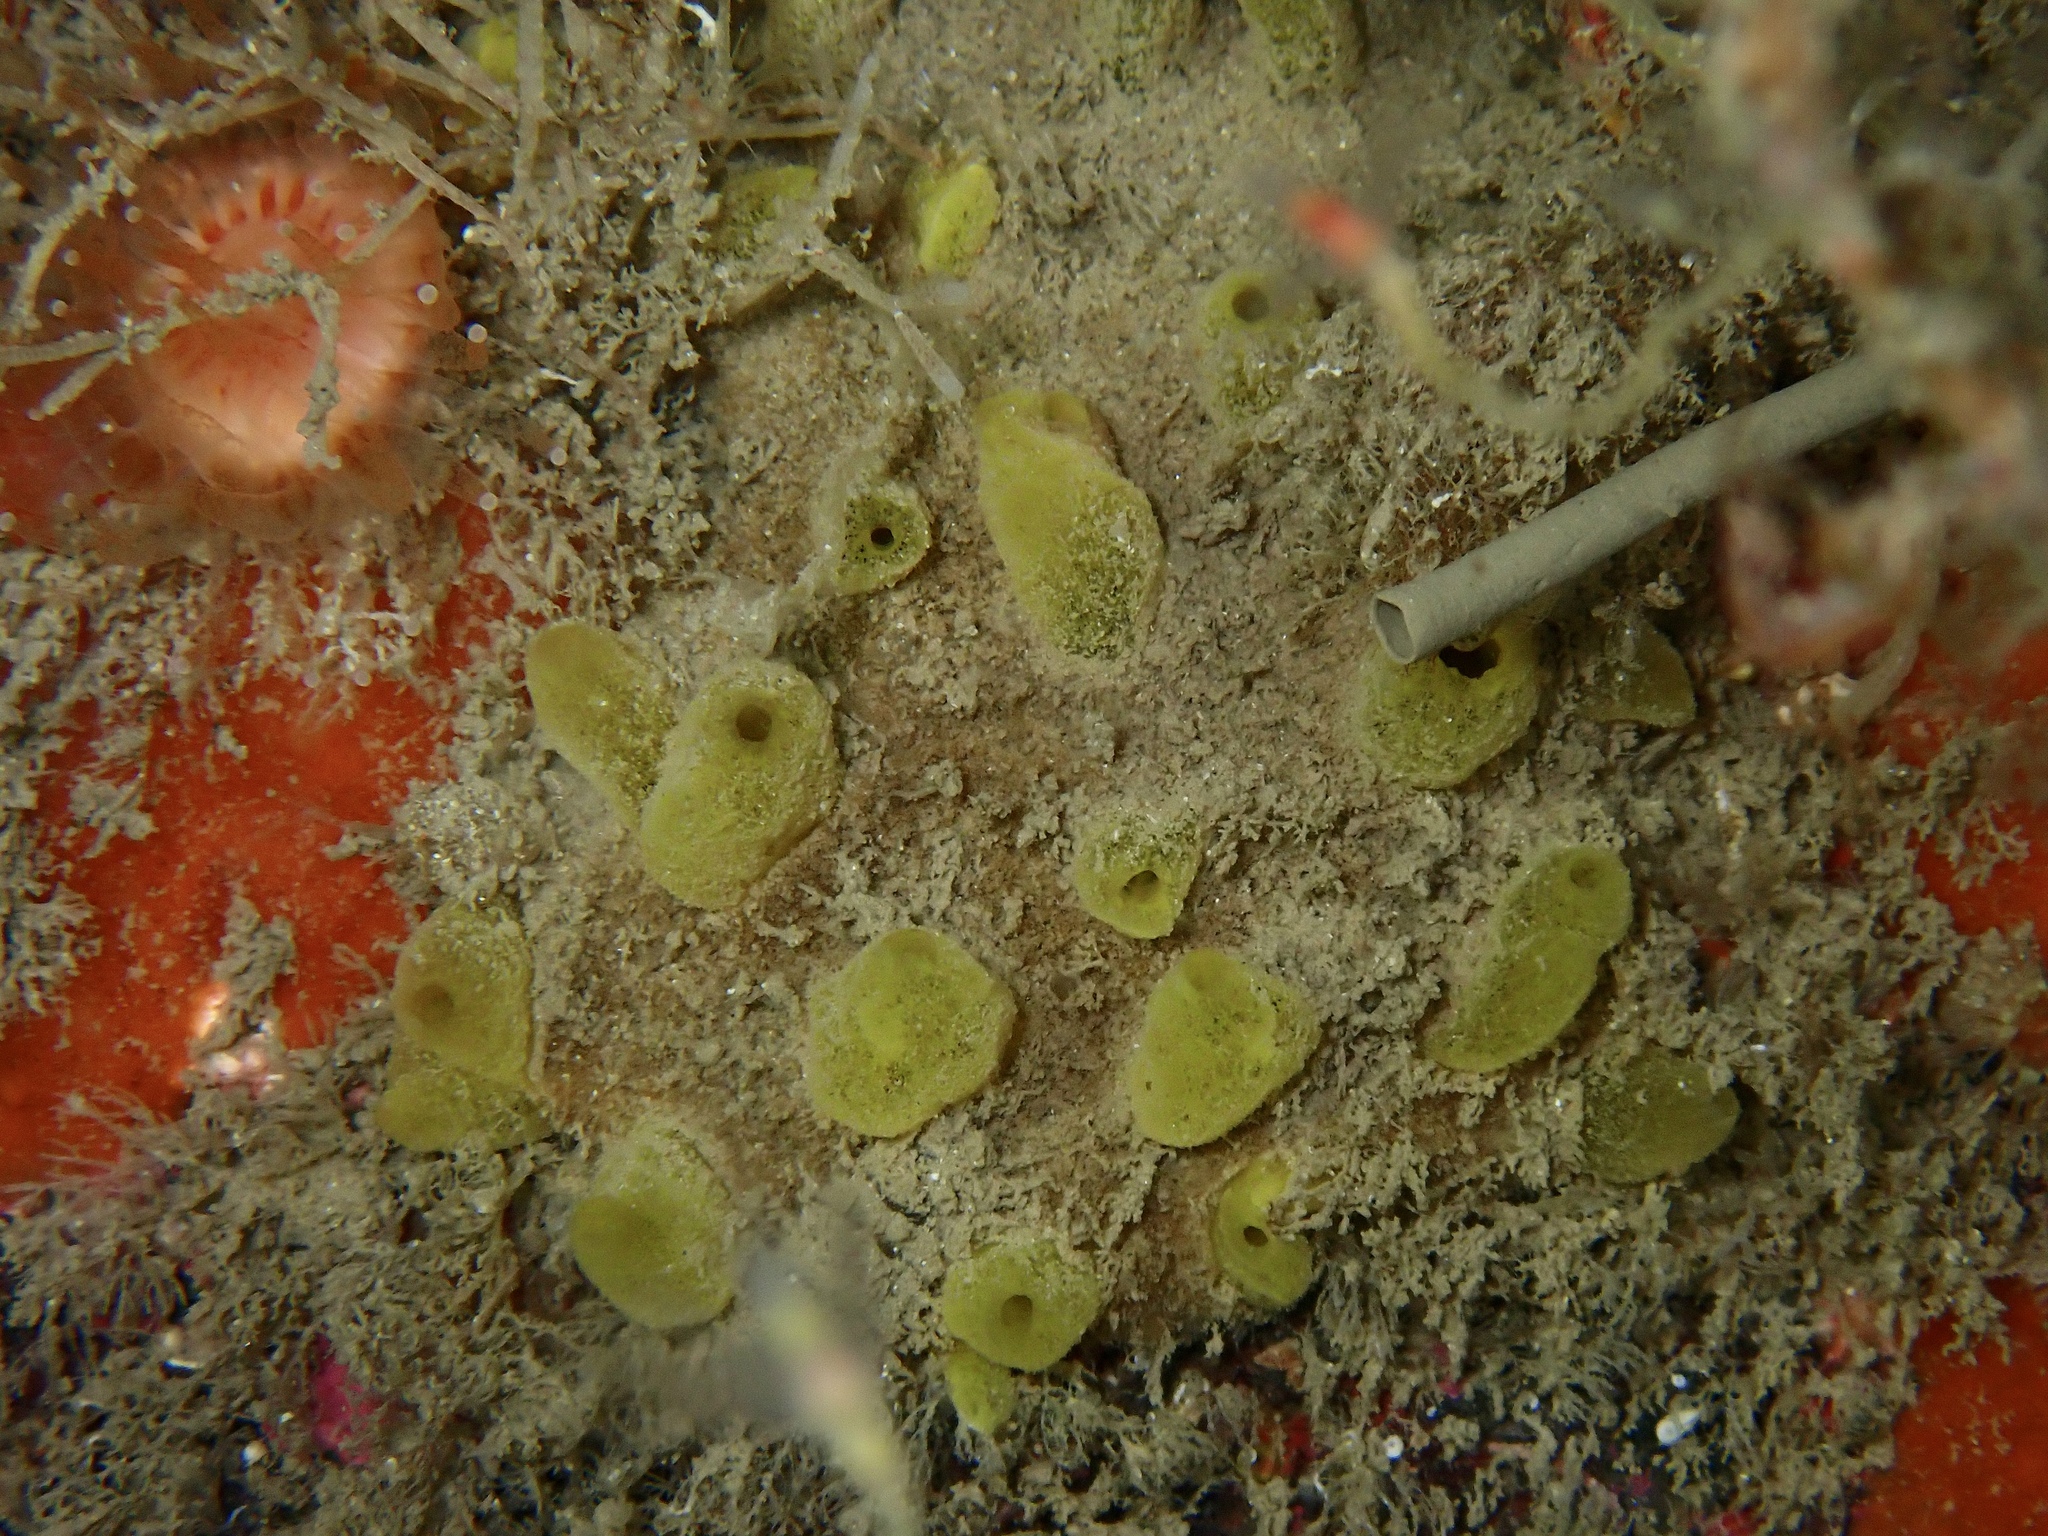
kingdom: Animalia
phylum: Porifera
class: Demospongiae
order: Polymastiida
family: Polymastiidae
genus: Sphaerotylus
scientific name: Sphaerotylus renoufi
